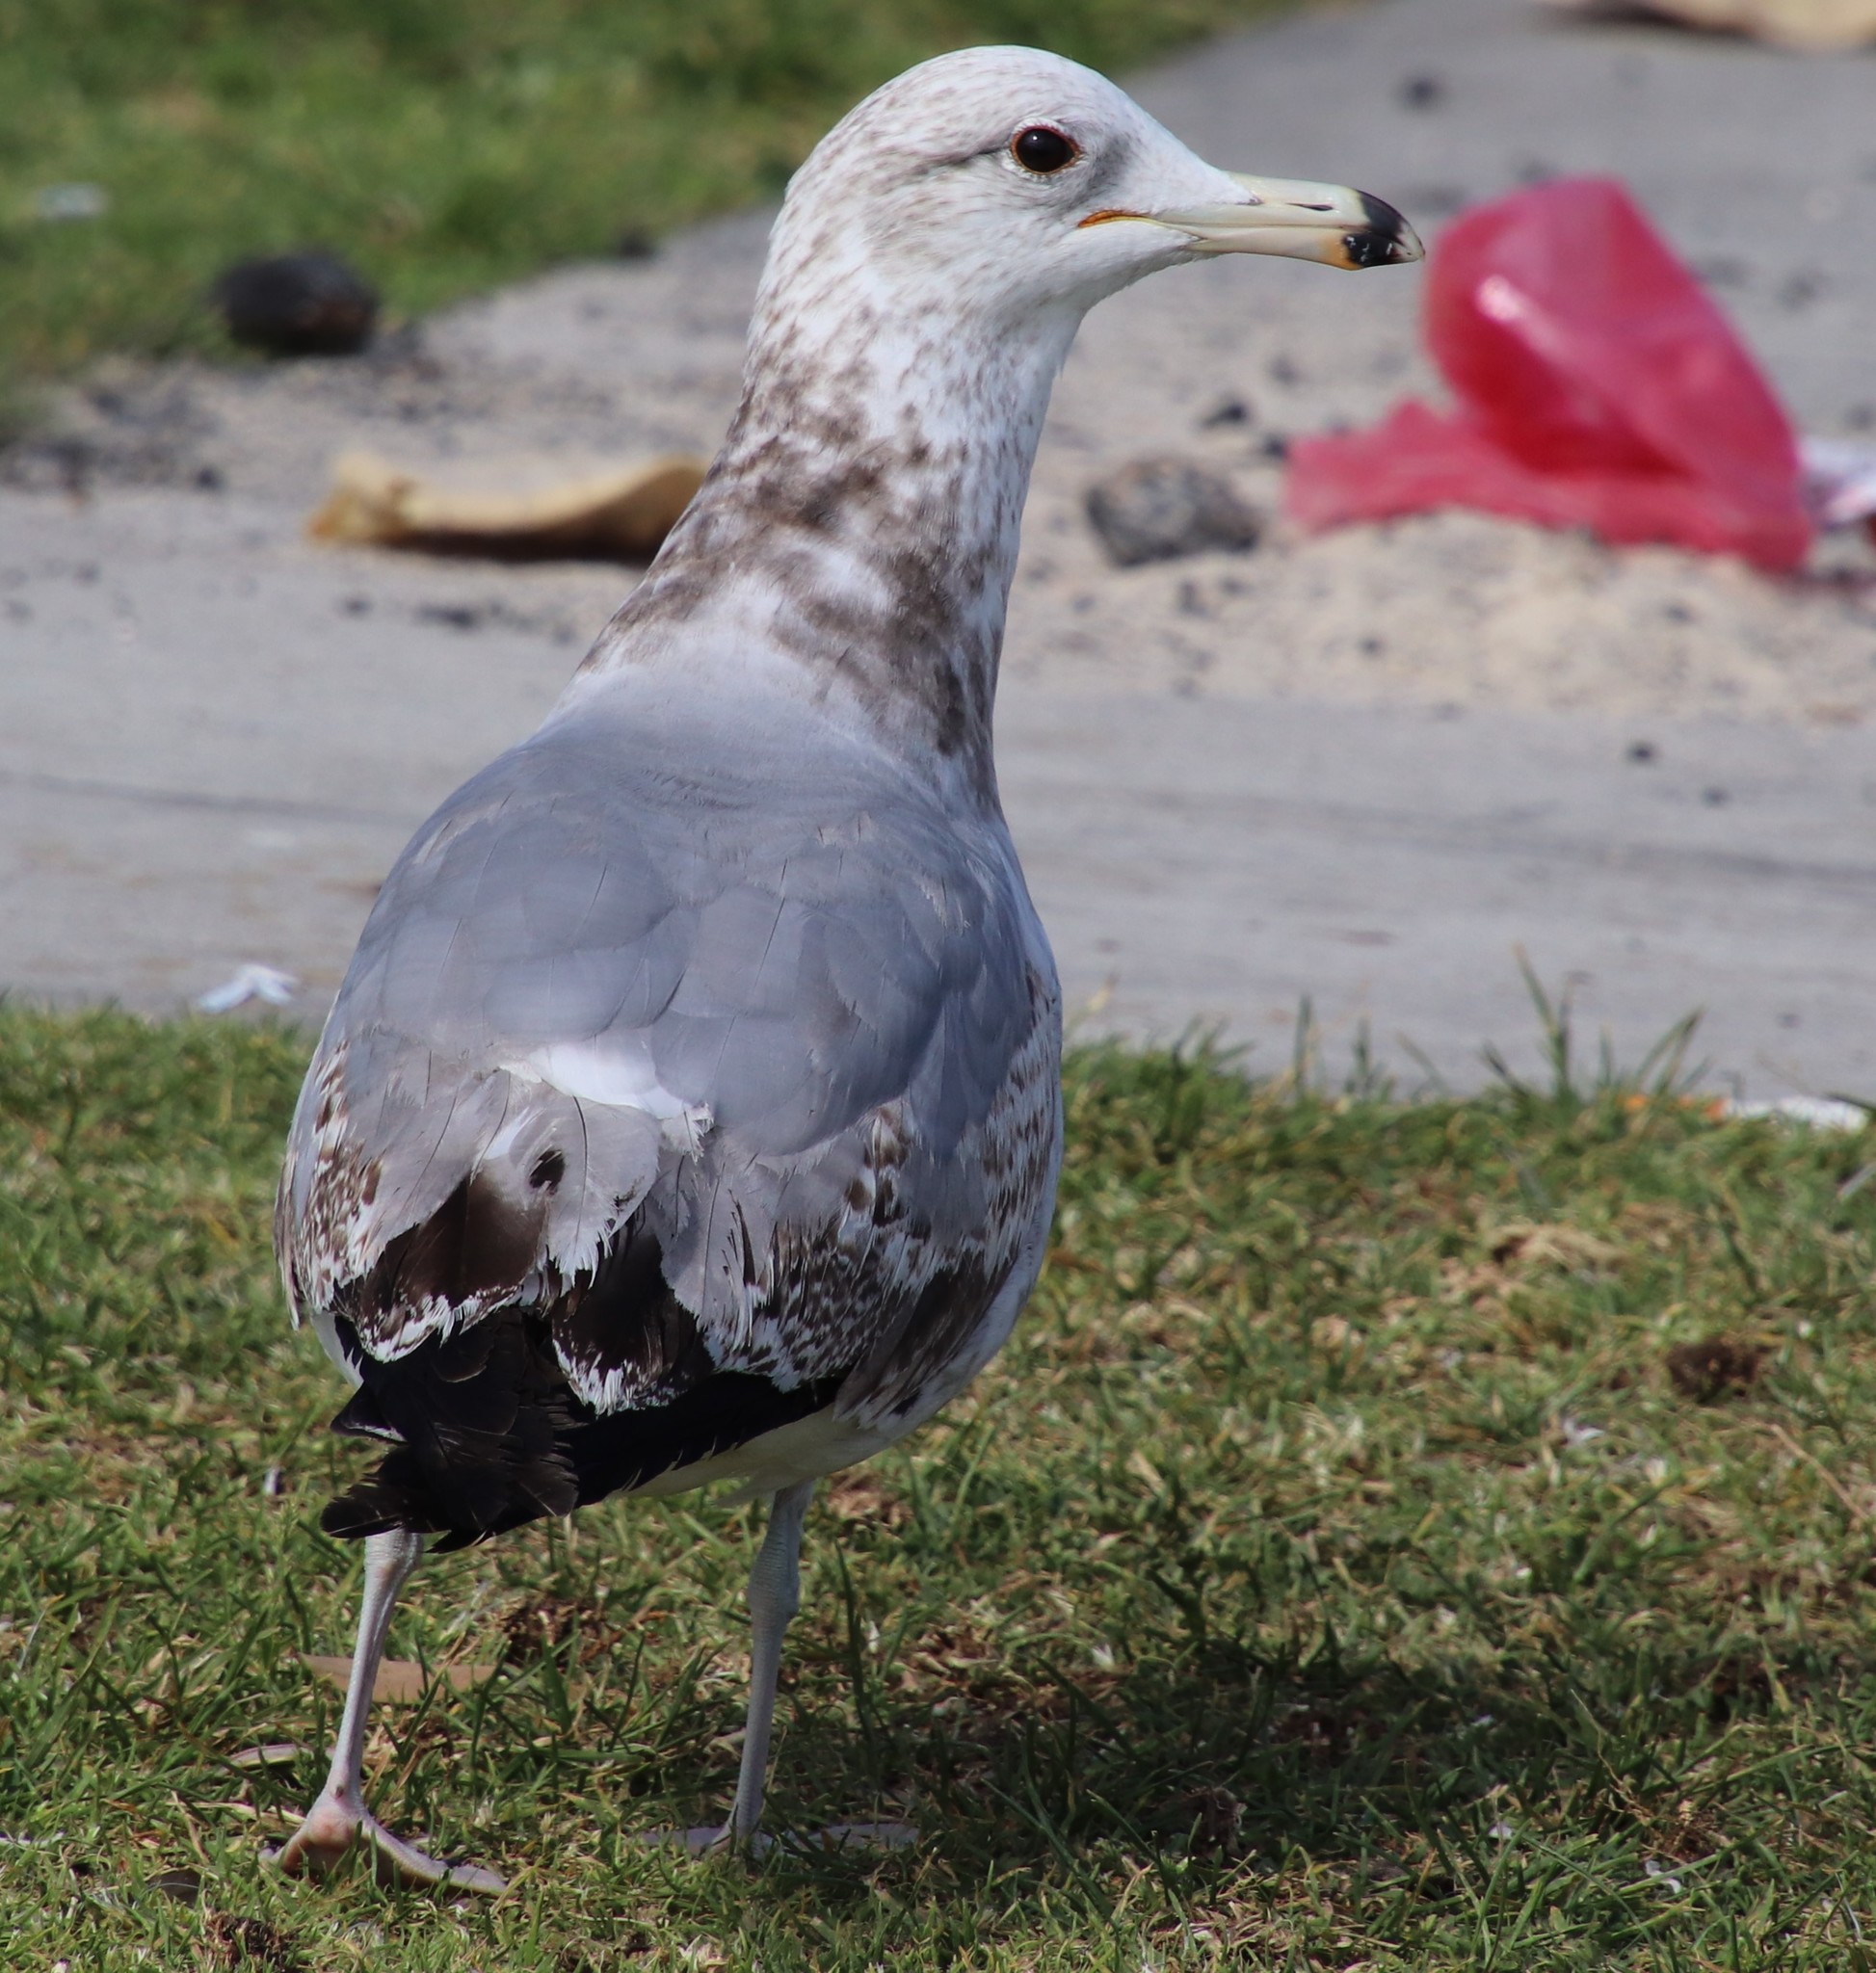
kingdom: Animalia
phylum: Chordata
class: Aves
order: Charadriiformes
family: Laridae
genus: Larus
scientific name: Larus californicus
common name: California gull
